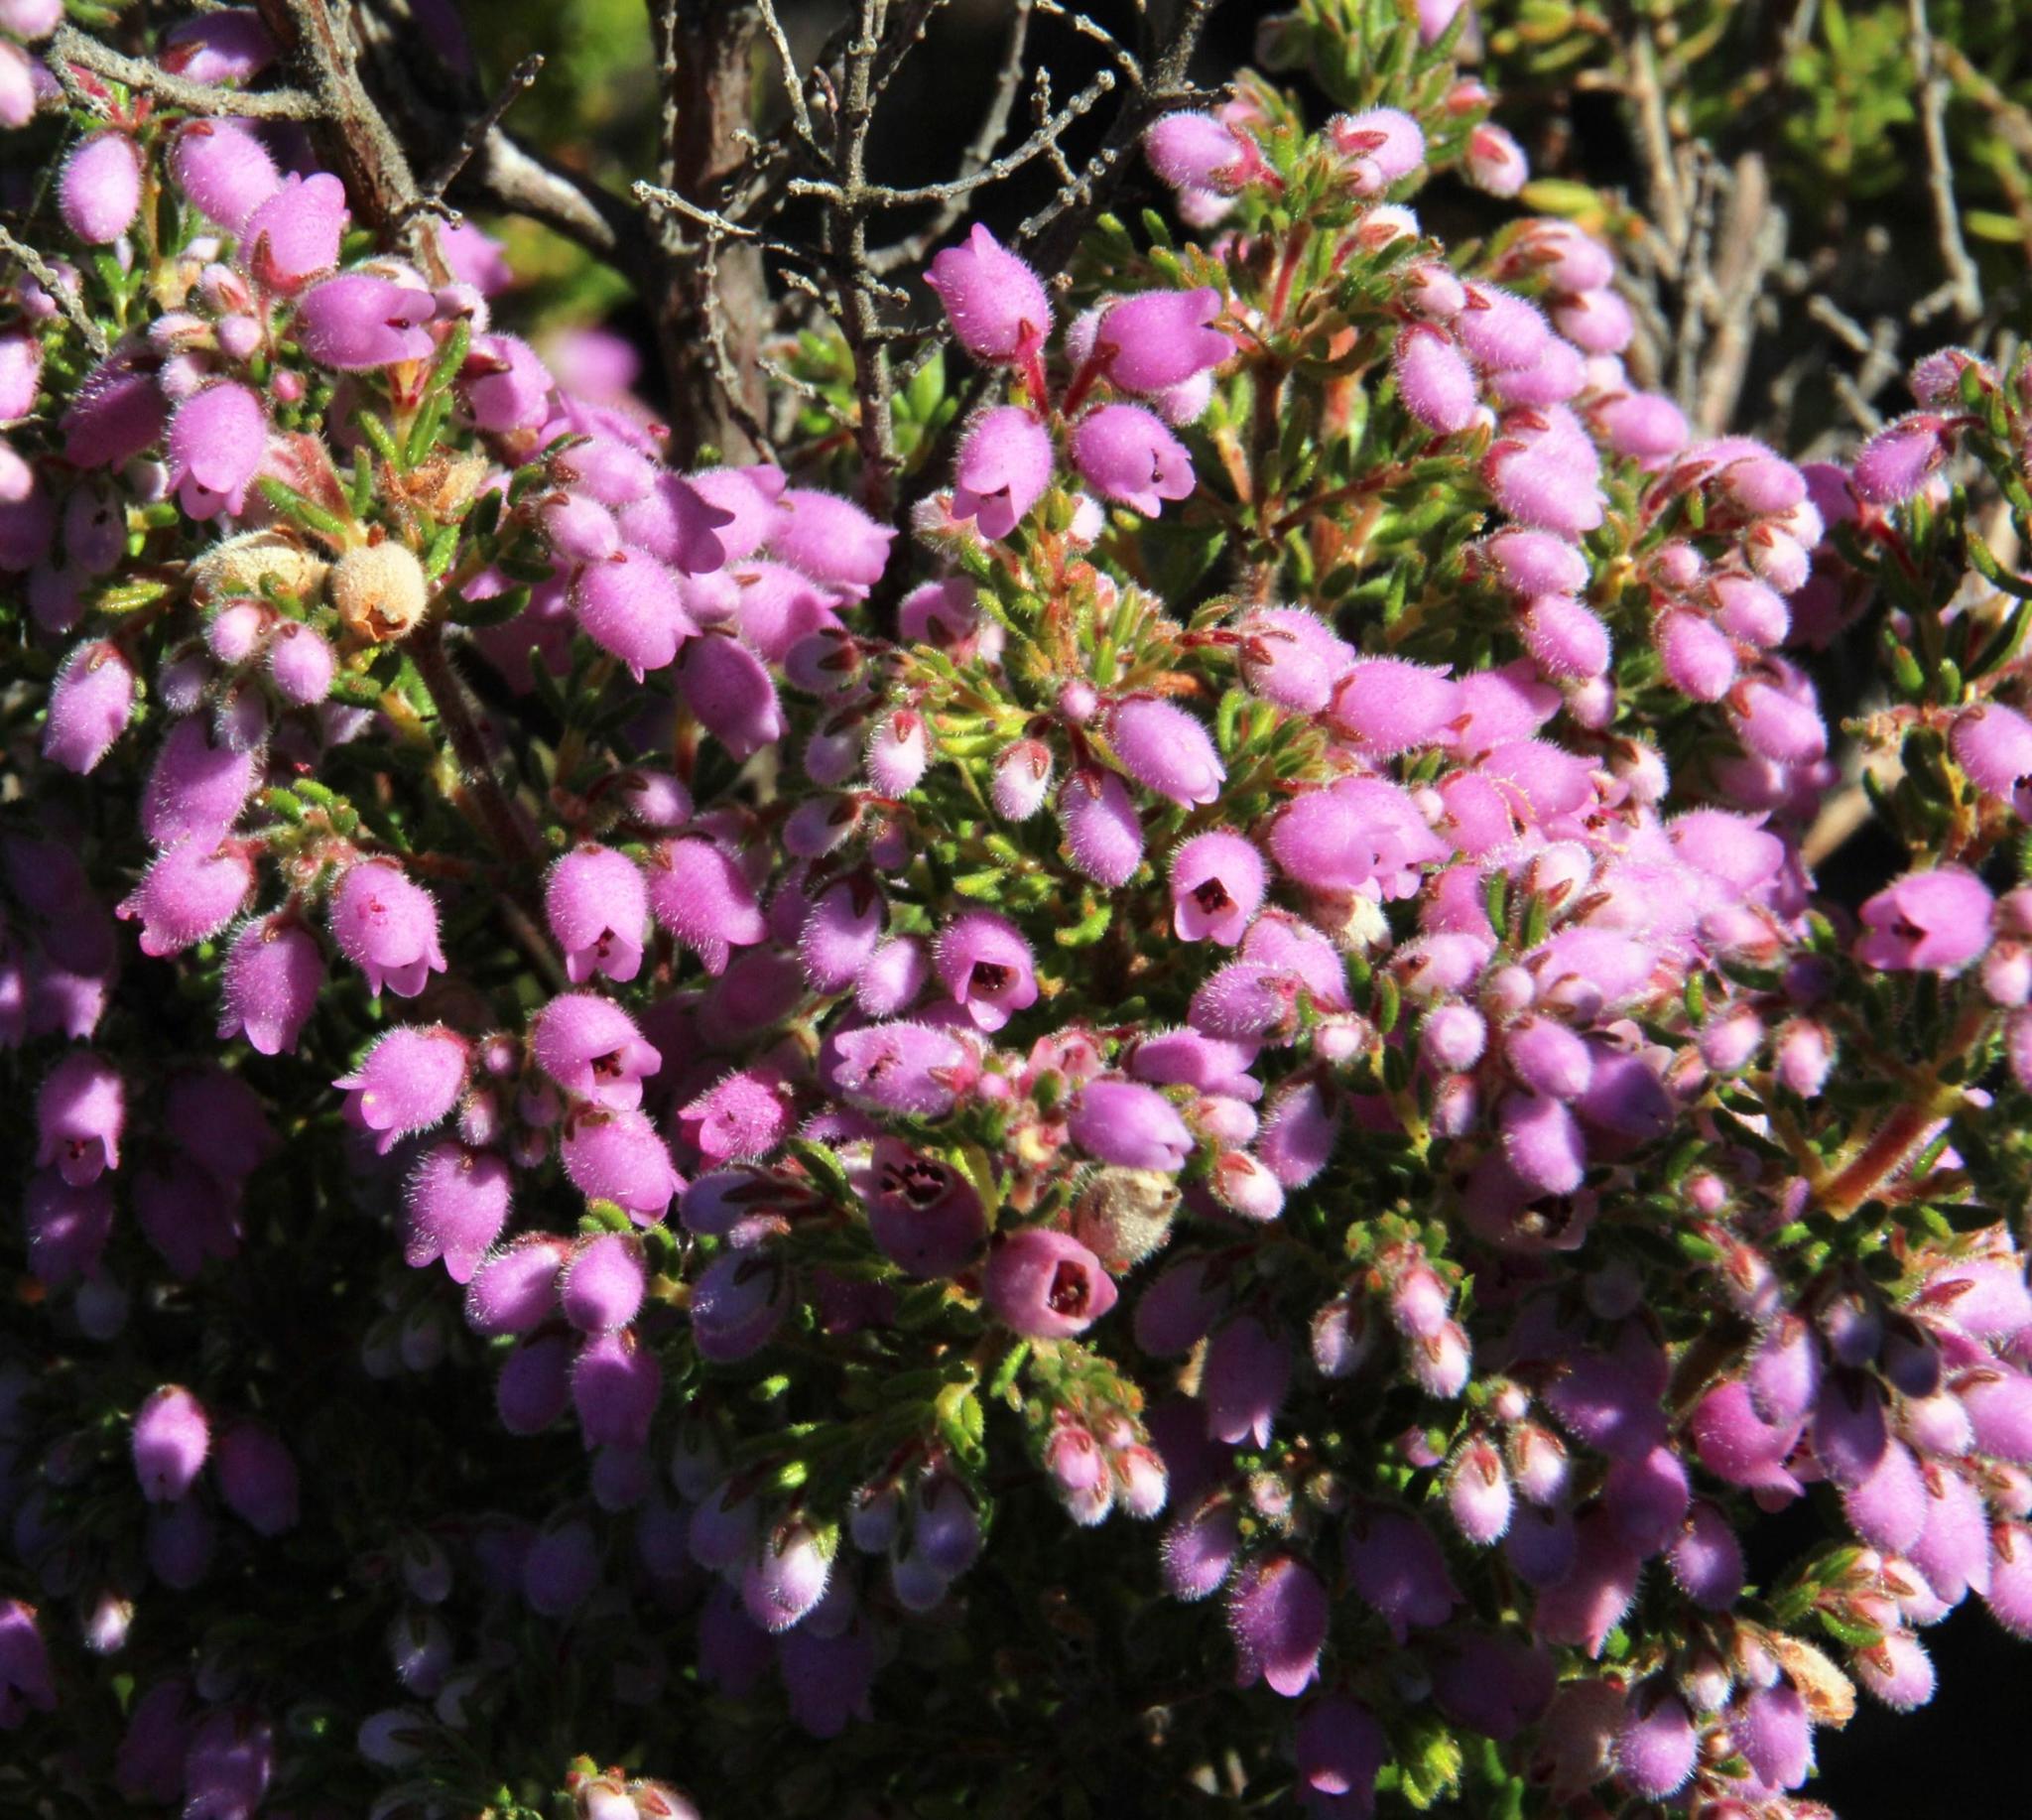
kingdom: Plantae
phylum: Tracheophyta
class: Magnoliopsida
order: Ericales
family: Ericaceae
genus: Erica
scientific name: Erica hirtiflora
